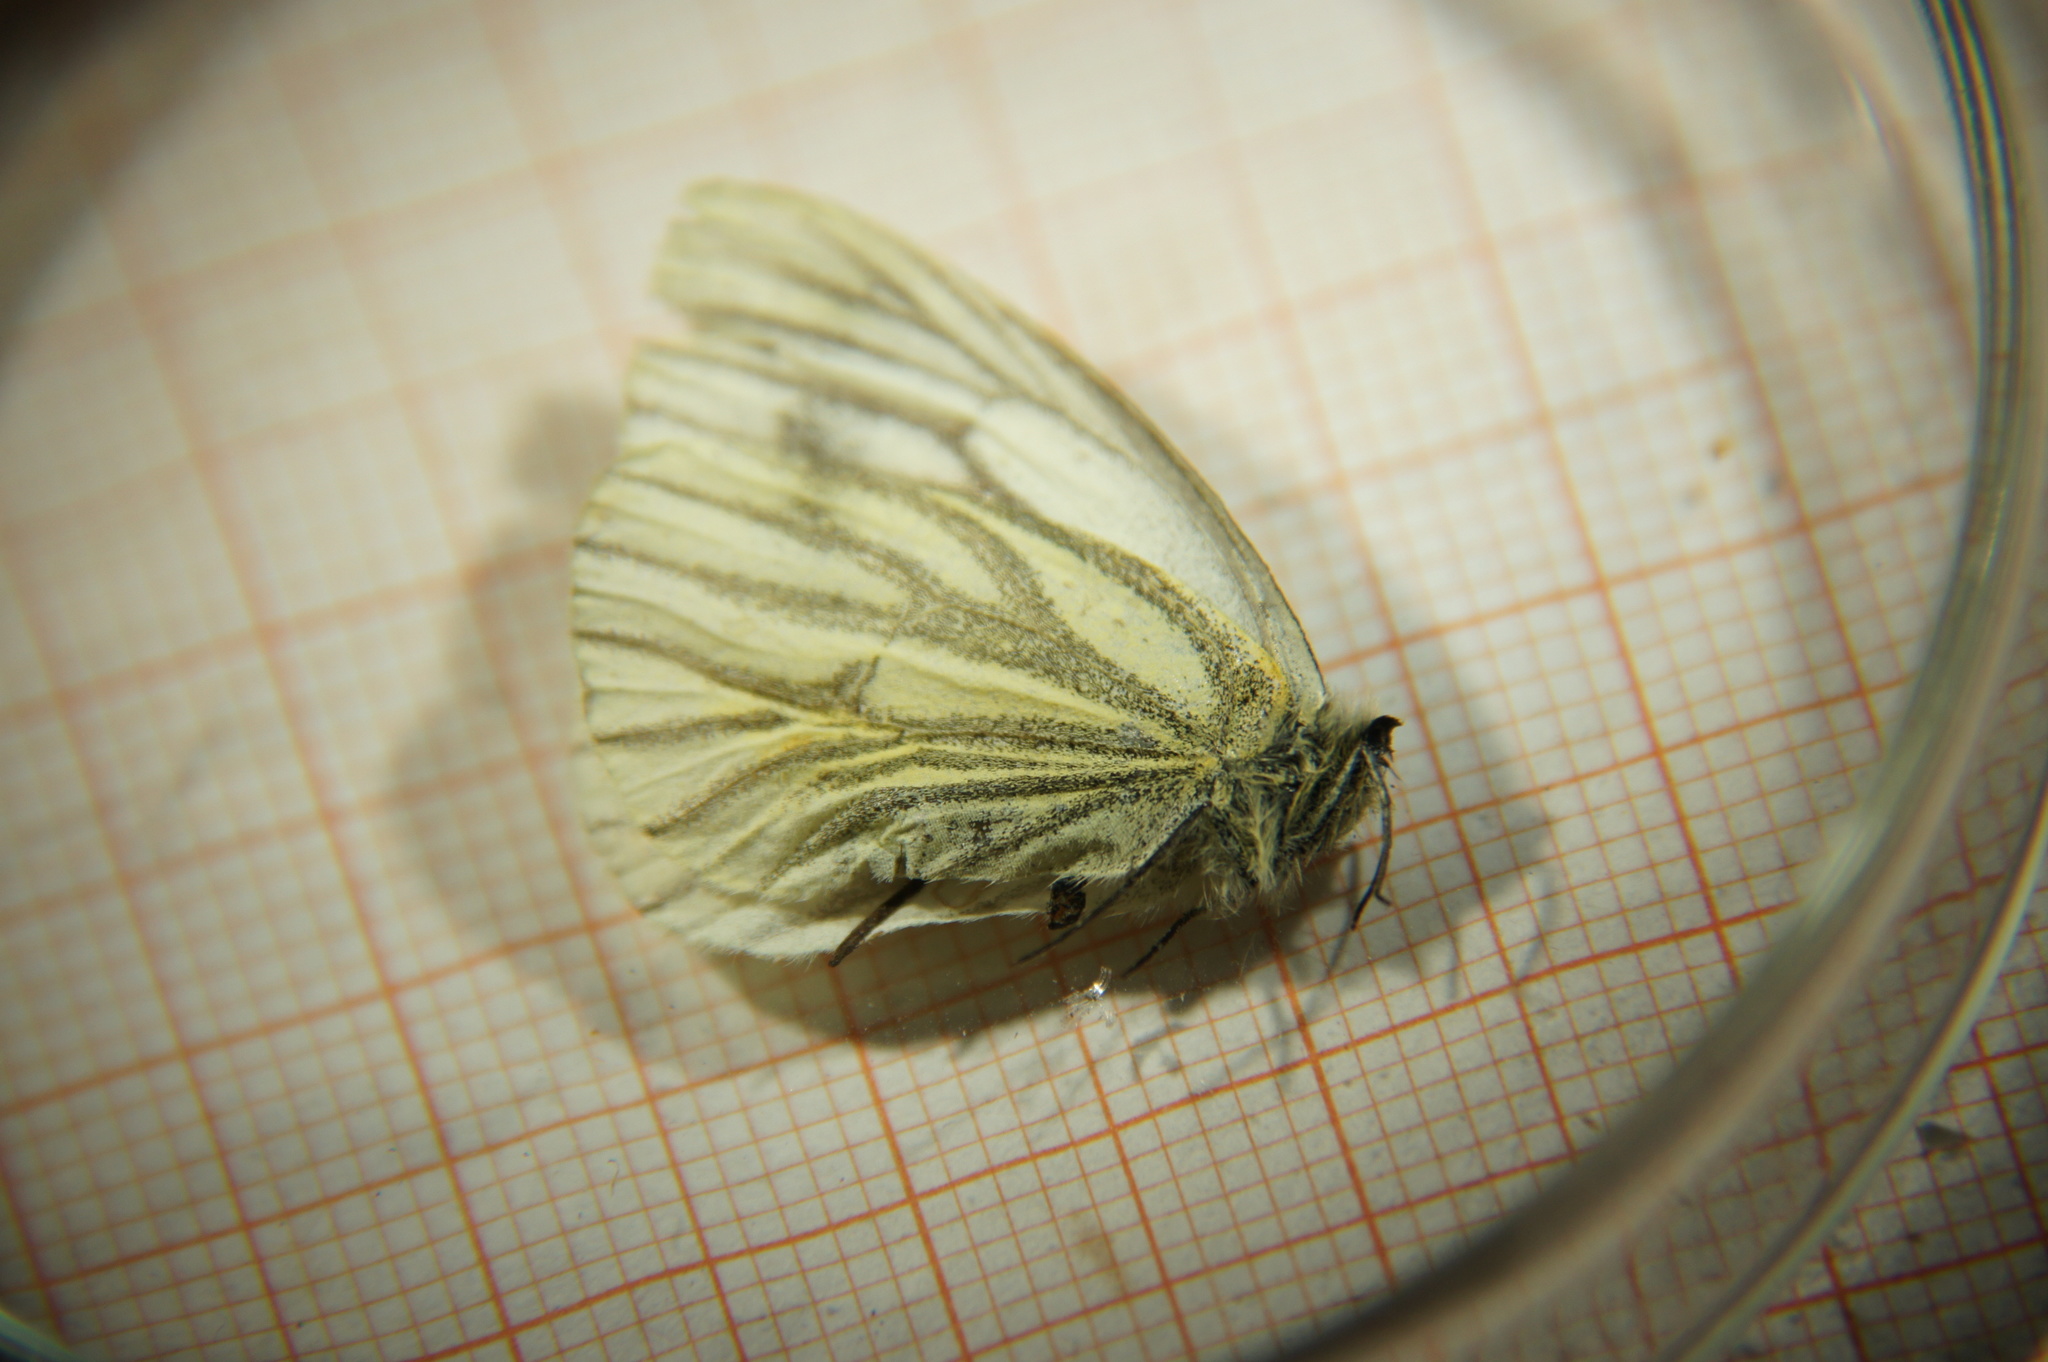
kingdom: Animalia
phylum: Arthropoda
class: Insecta
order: Lepidoptera
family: Pieridae
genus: Pieris
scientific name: Pieris napi
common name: Green-veined white
